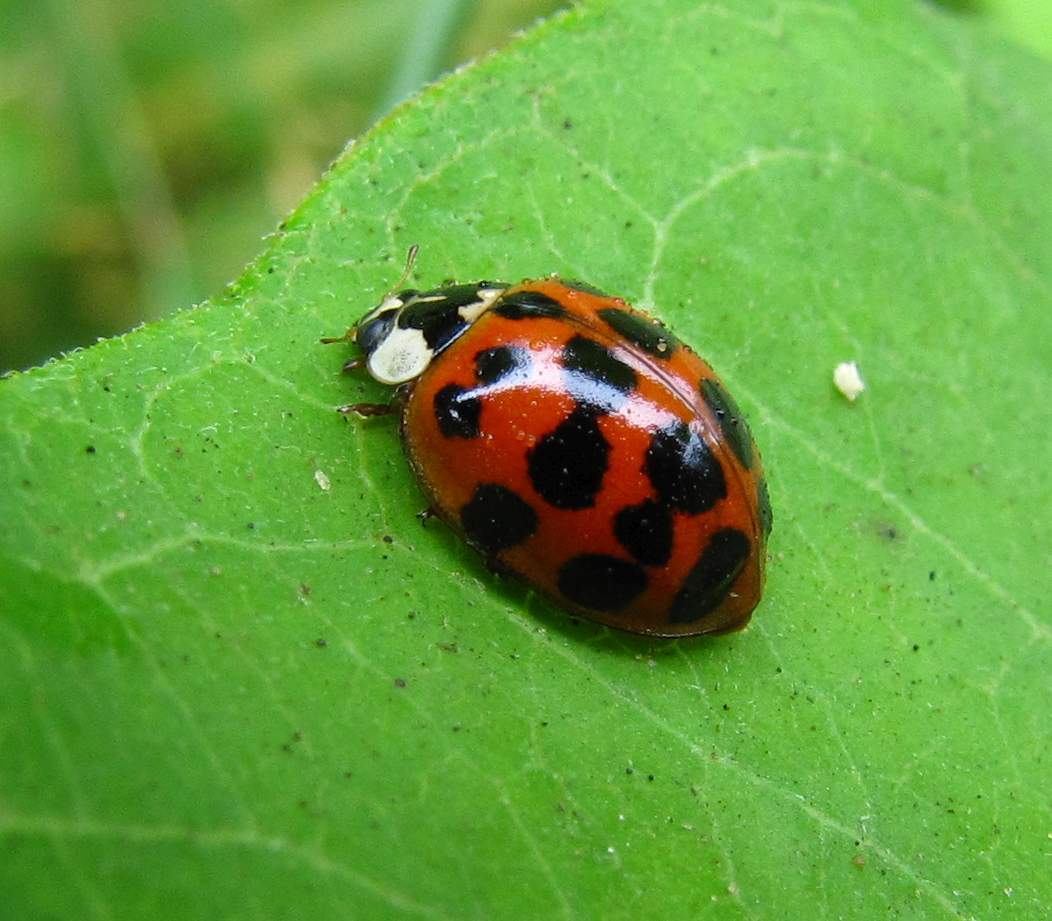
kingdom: Animalia
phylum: Arthropoda
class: Insecta
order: Coleoptera
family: Coccinellidae
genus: Harmonia
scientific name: Harmonia axyridis
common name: Harlequin ladybird
